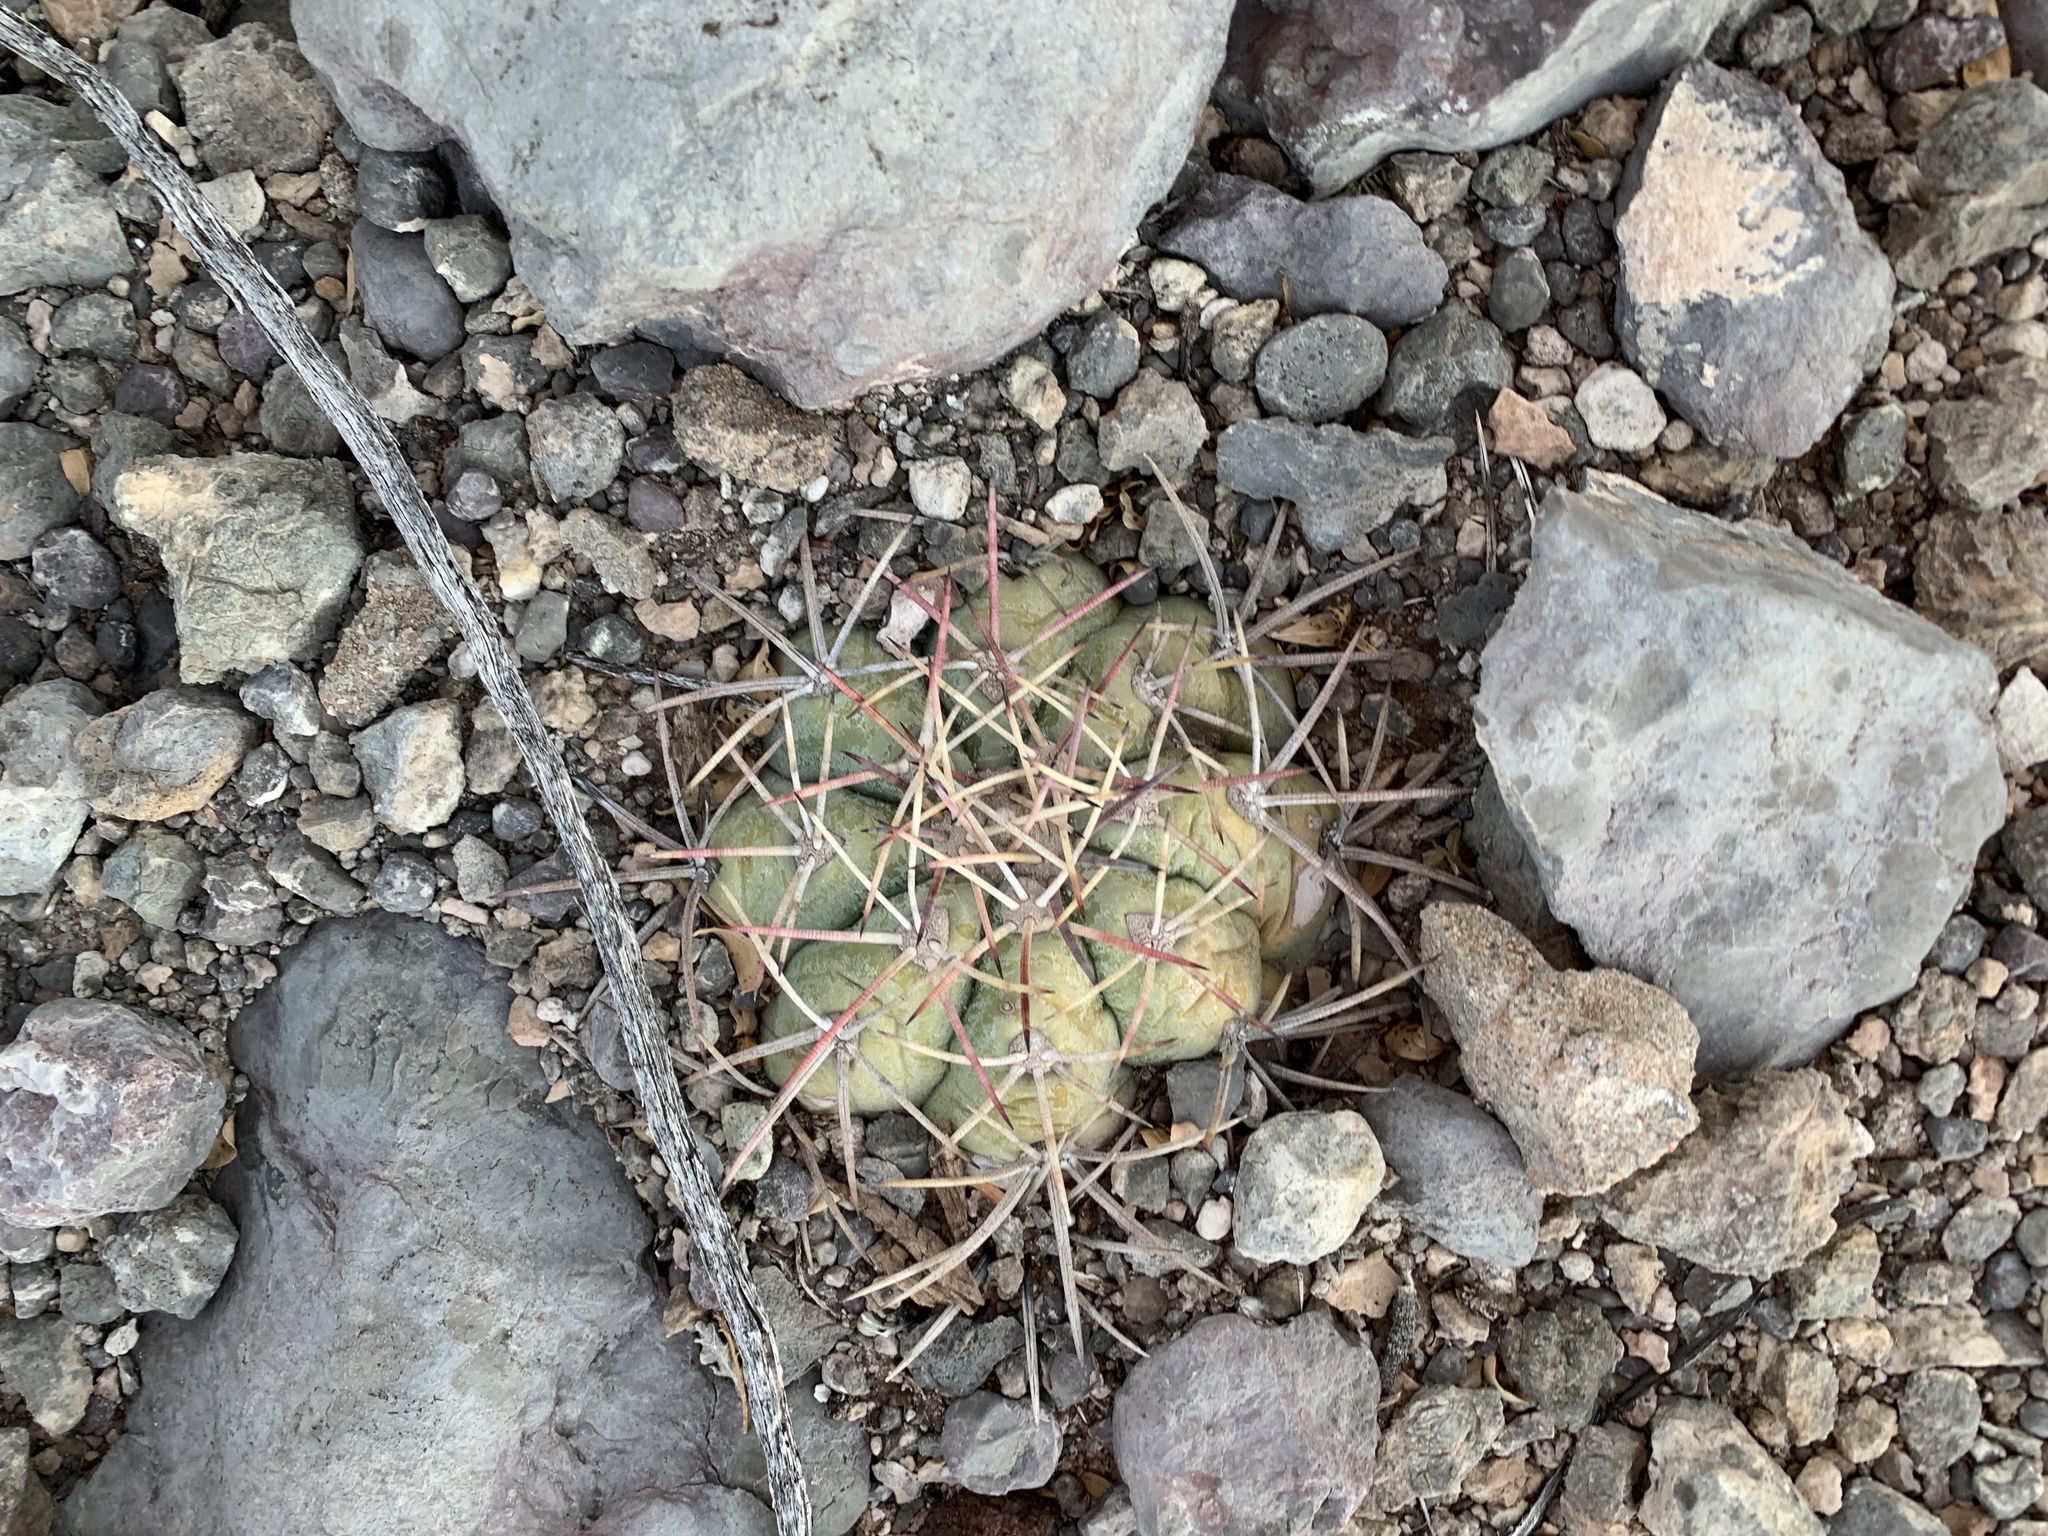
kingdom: Plantae
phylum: Tracheophyta
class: Magnoliopsida
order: Caryophyllales
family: Cactaceae
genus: Echinocactus
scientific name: Echinocactus horizonthalonius
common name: Devilshead
